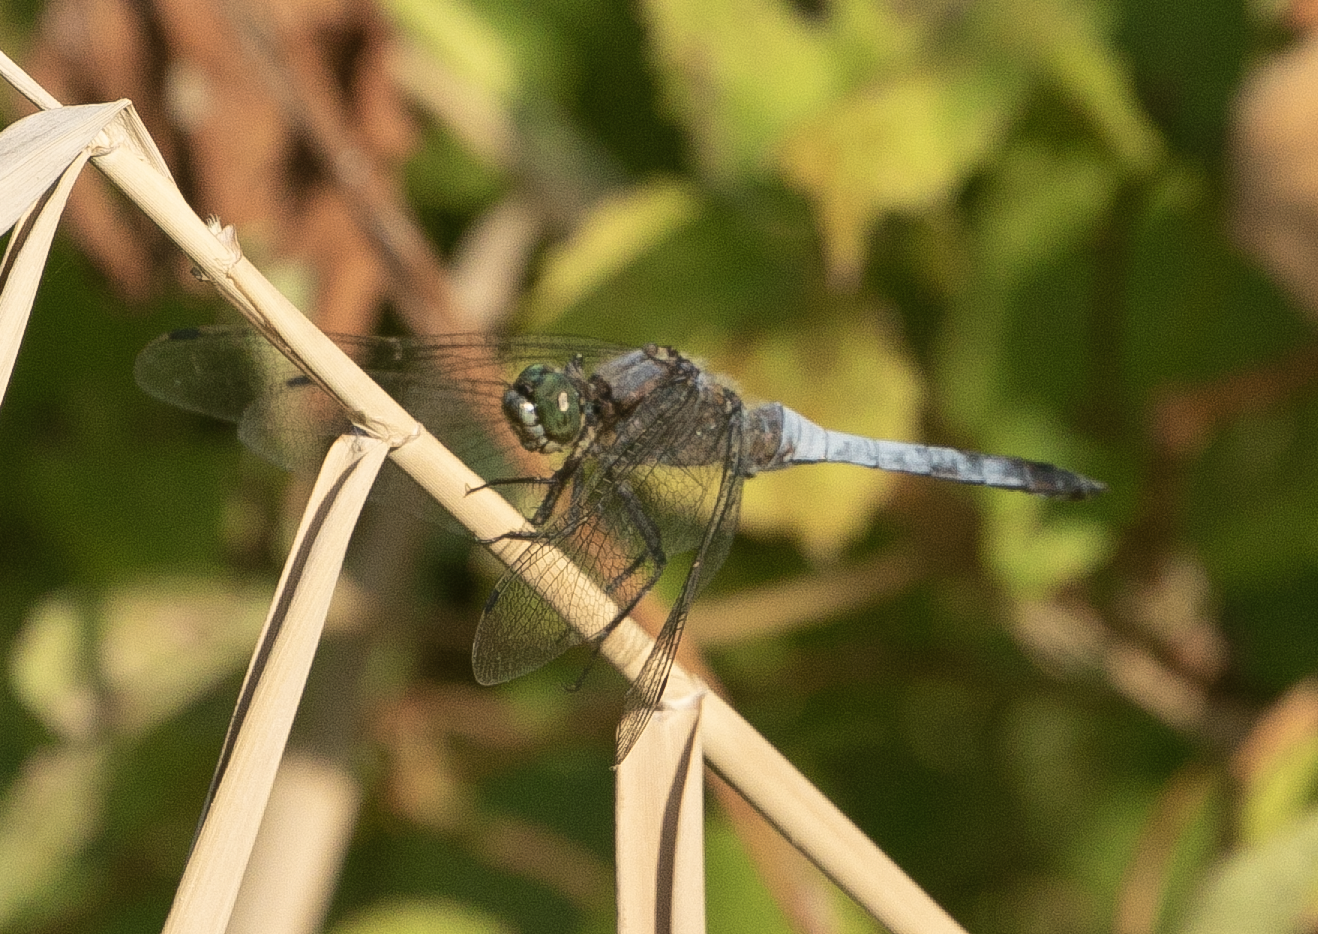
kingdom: Animalia
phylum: Arthropoda
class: Insecta
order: Odonata
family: Libellulidae
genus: Orthetrum
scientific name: Orthetrum cancellatum
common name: Black-tailed skimmer
